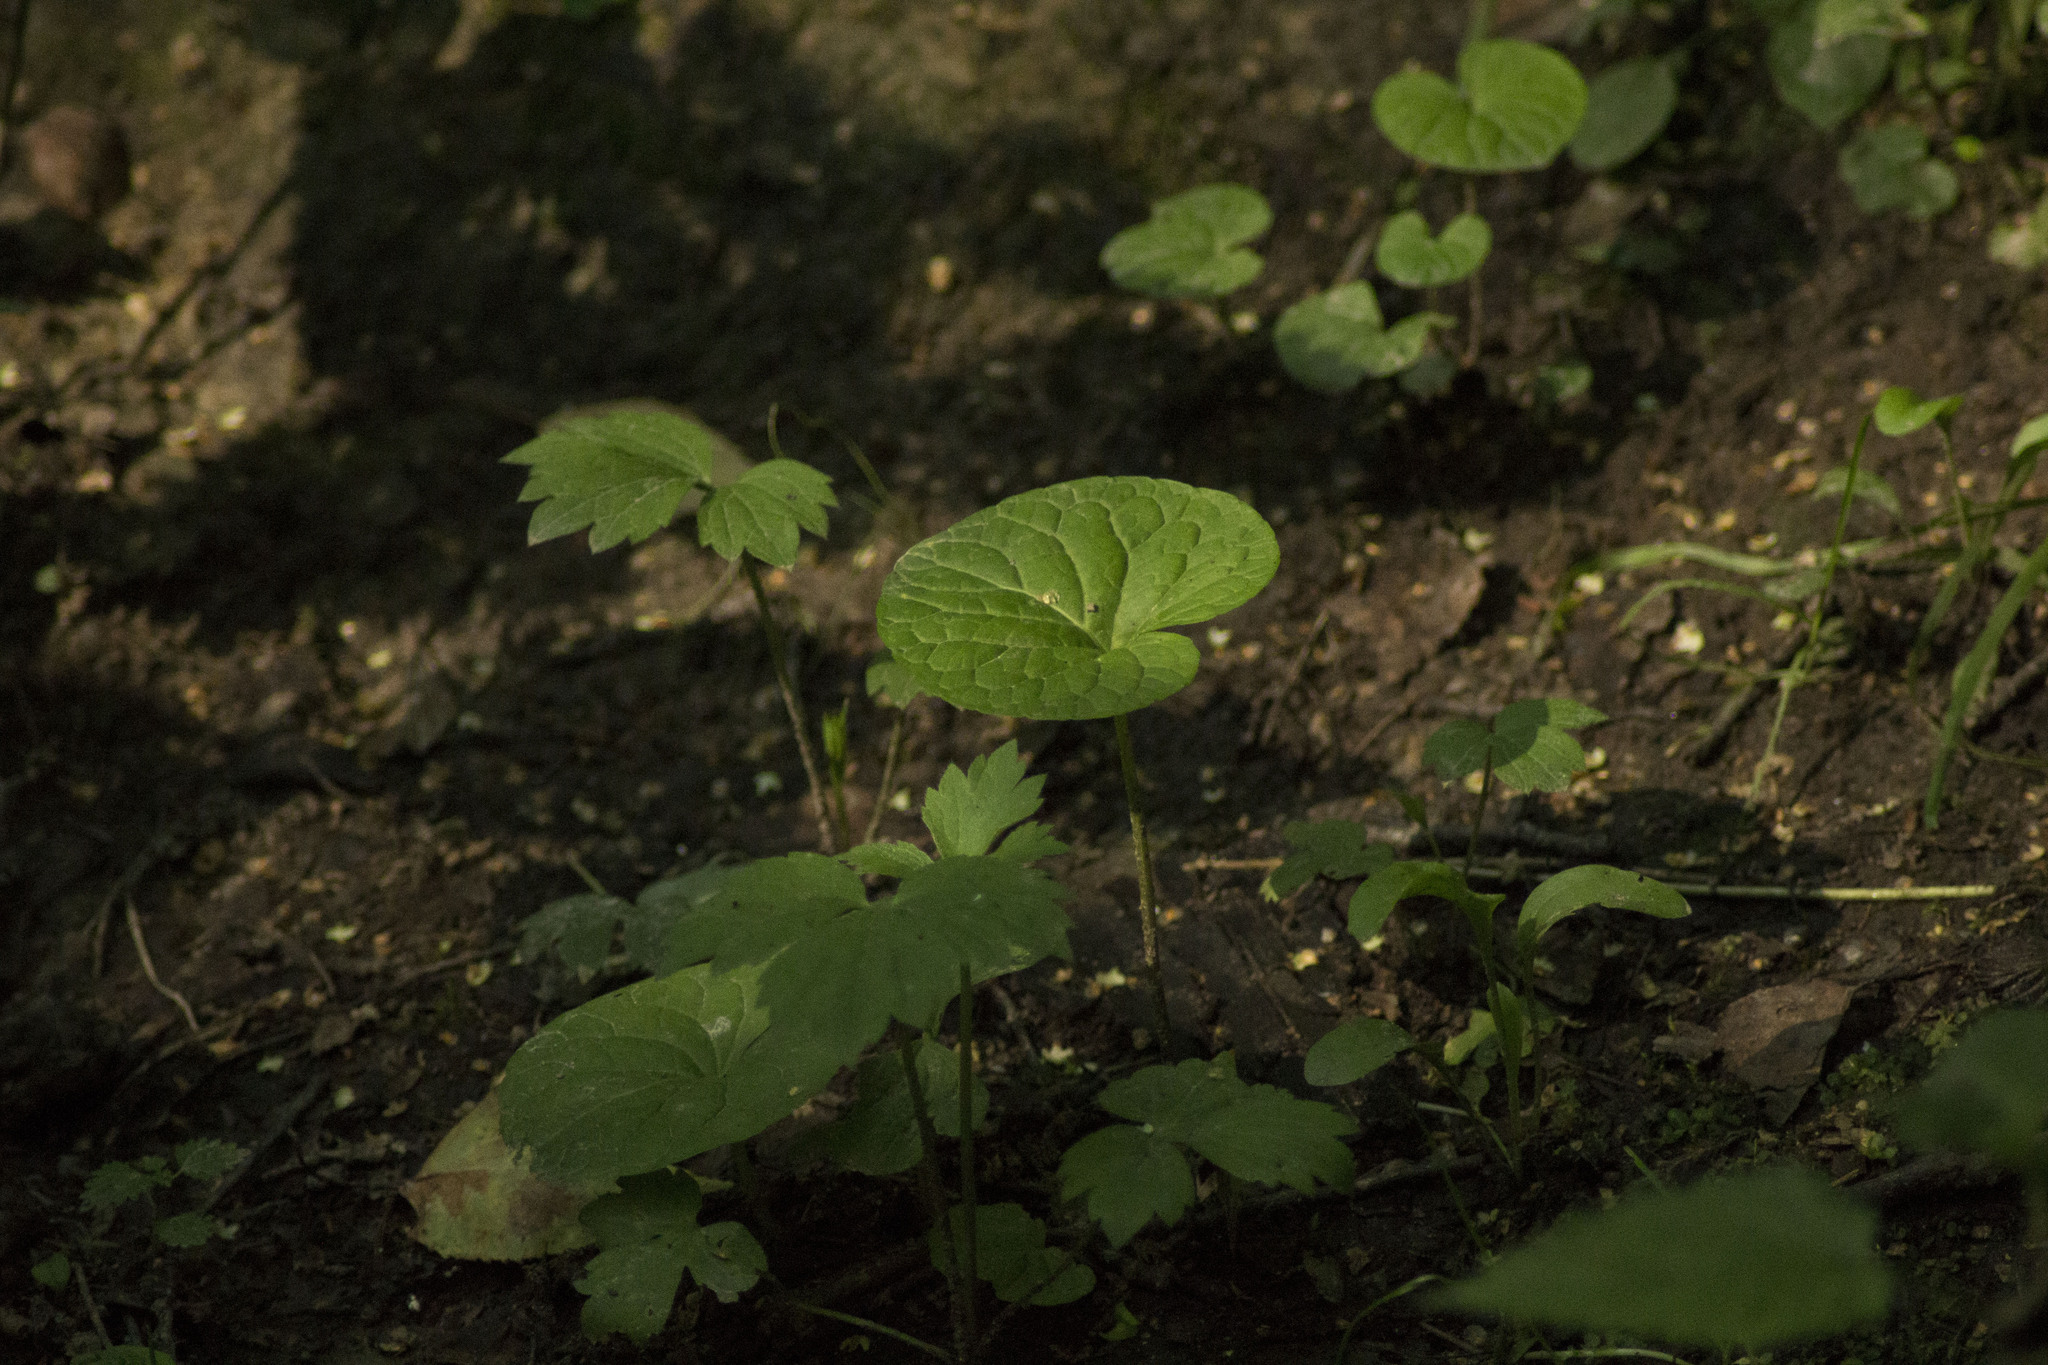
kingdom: Plantae
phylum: Tracheophyta
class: Magnoliopsida
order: Malpighiales
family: Violaceae
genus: Viola
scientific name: Viola palustris
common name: Marsh violet
